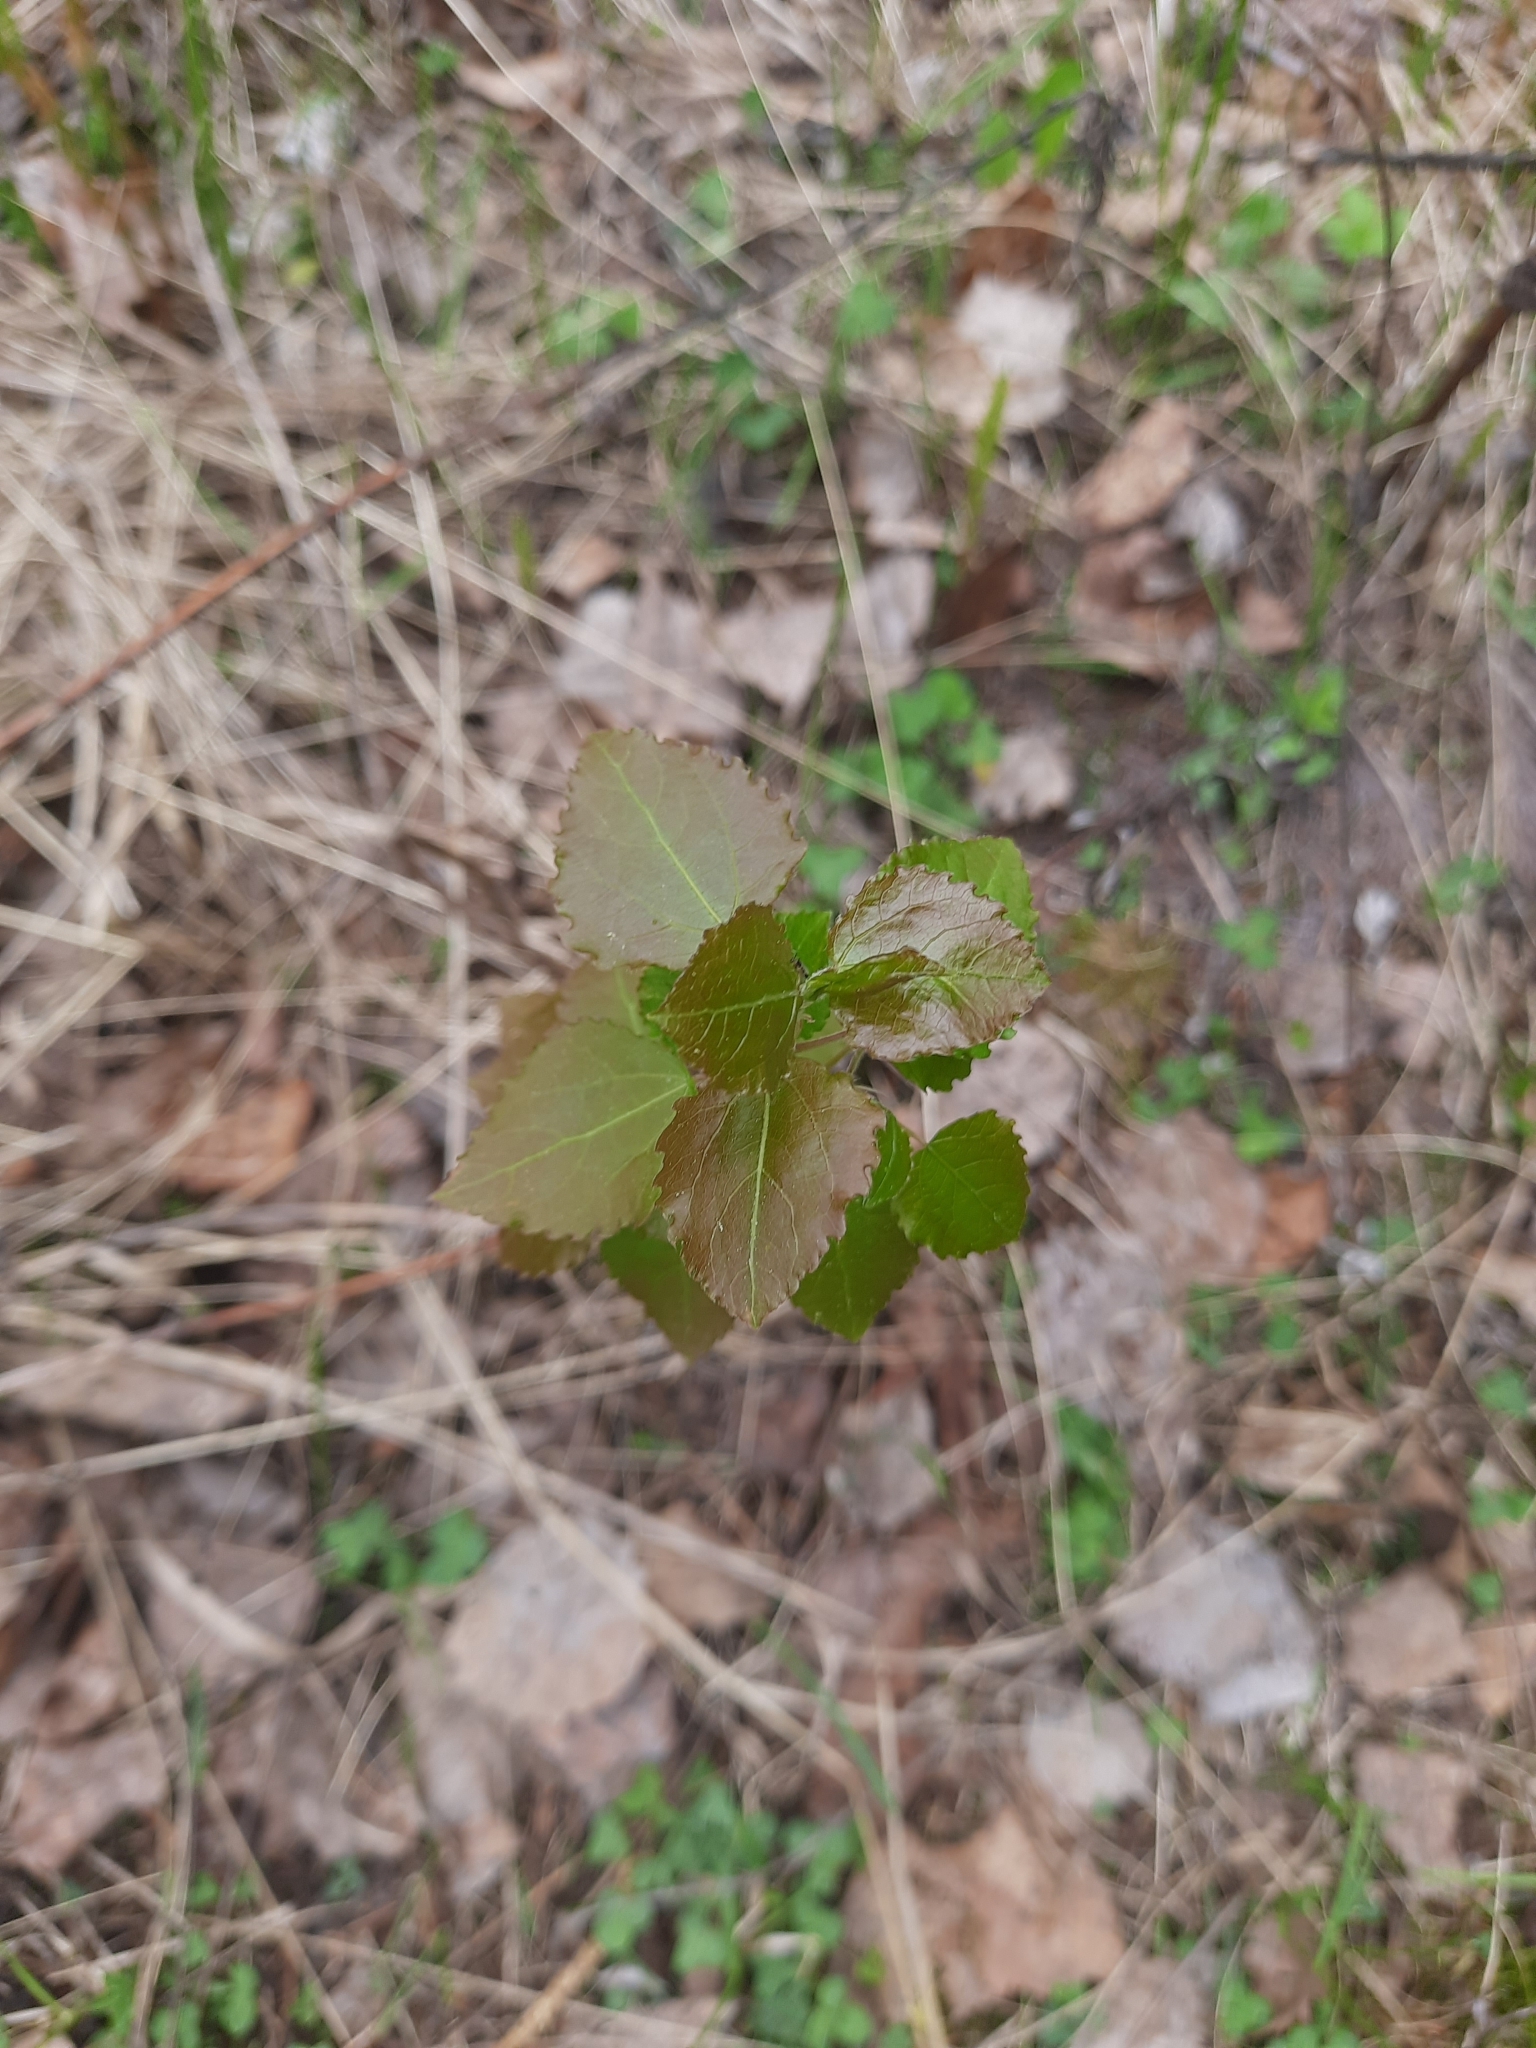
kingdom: Plantae
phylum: Tracheophyta
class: Magnoliopsida
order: Malpighiales
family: Salicaceae
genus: Populus
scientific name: Populus tremula
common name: European aspen
